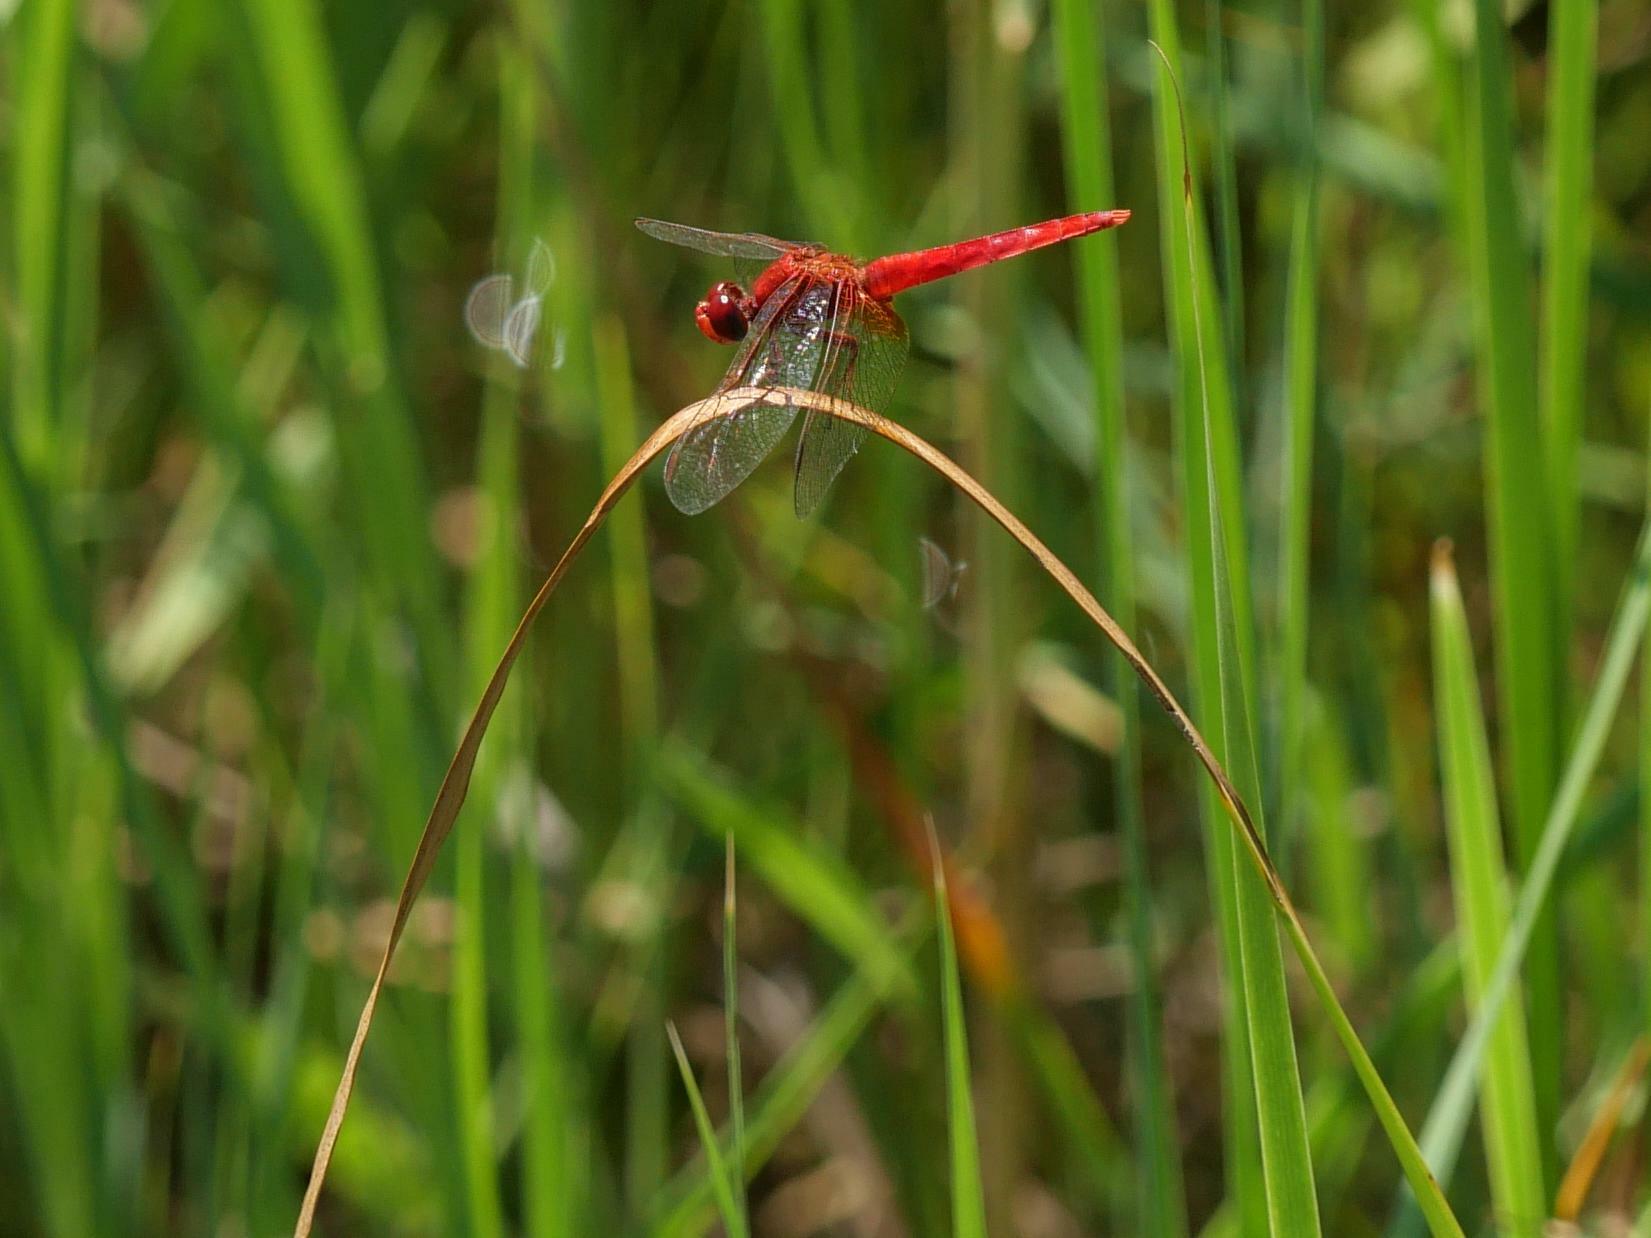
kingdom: Animalia
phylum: Arthropoda
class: Insecta
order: Odonata
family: Libellulidae
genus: Crocothemis
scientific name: Crocothemis erythraea
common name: Scarlet dragonfly
